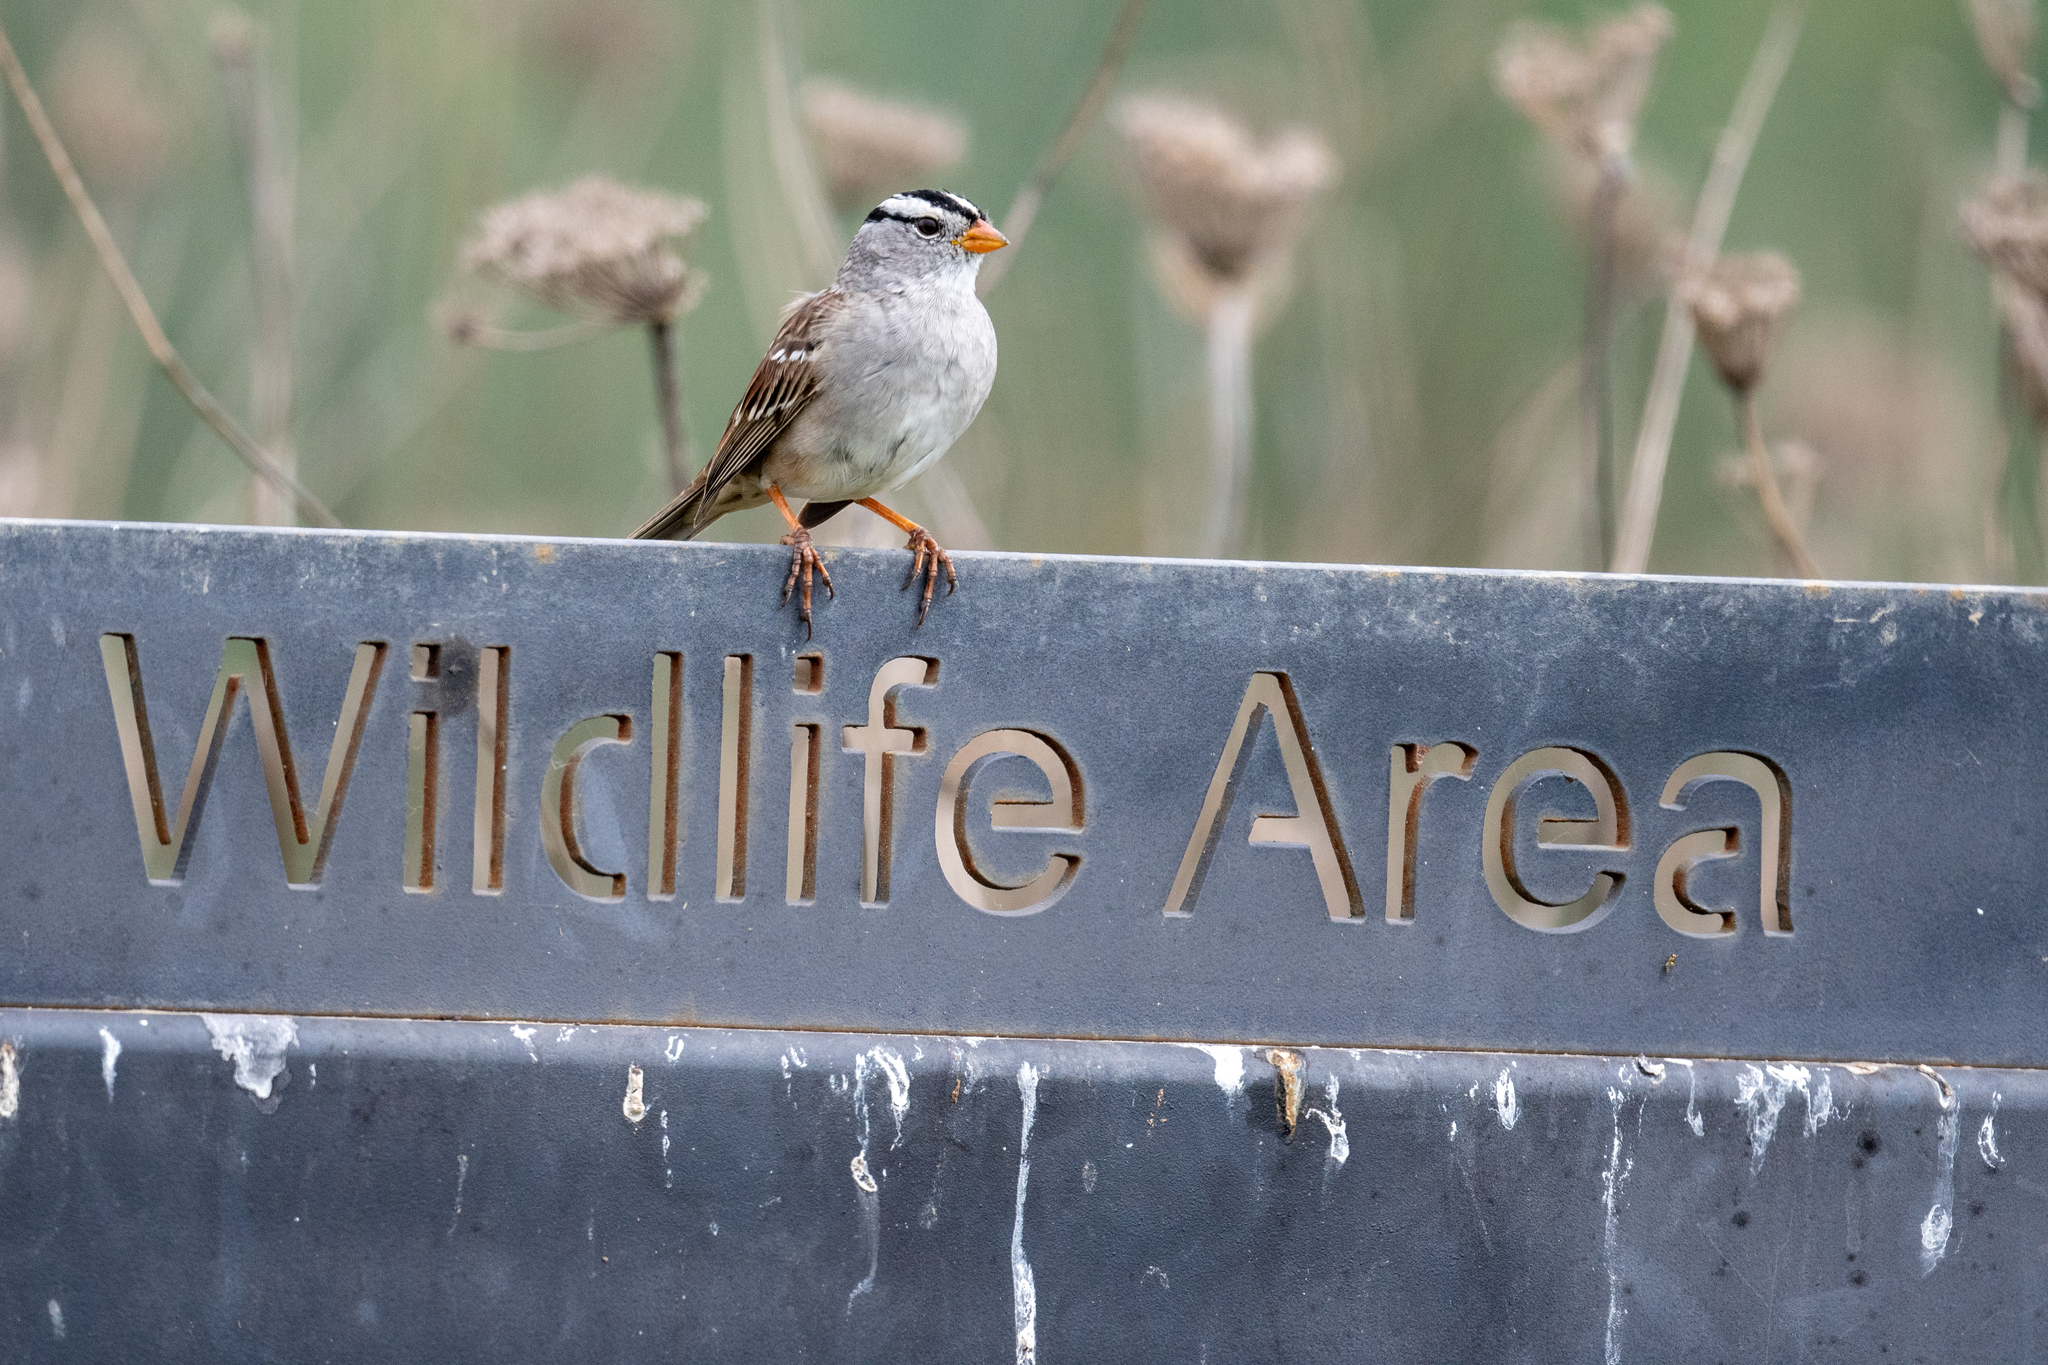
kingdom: Animalia
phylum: Chordata
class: Aves
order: Passeriformes
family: Passerellidae
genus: Zonotrichia
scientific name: Zonotrichia leucophrys
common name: White-crowned sparrow
